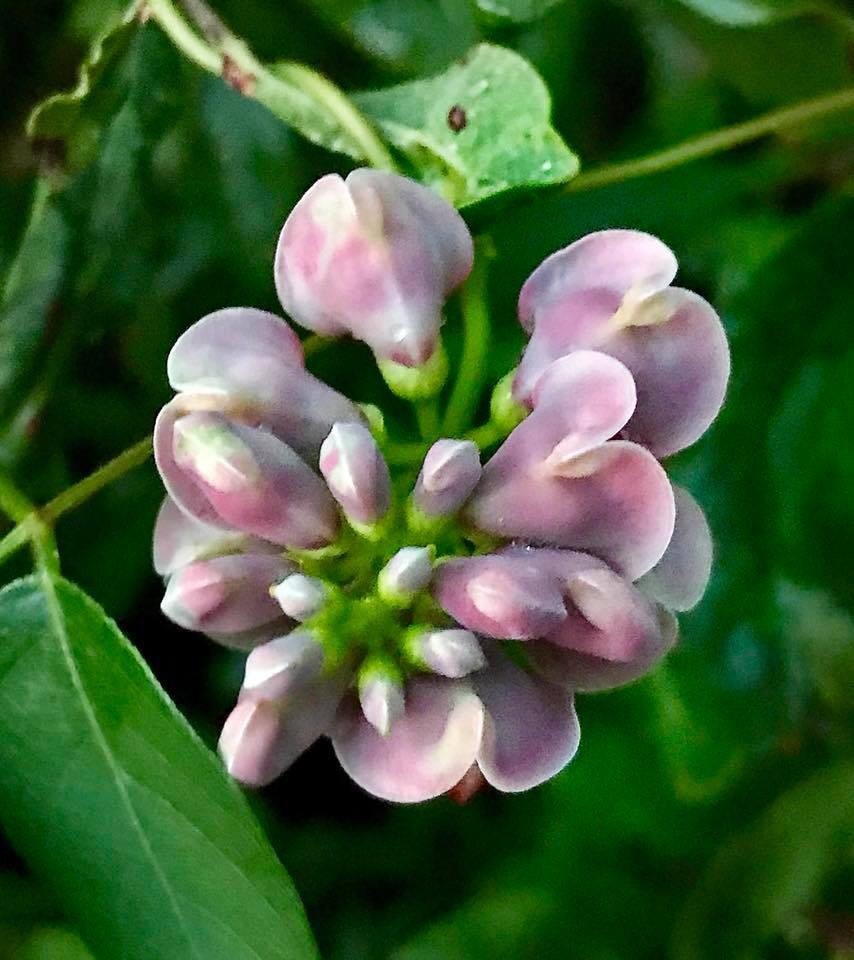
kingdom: Plantae
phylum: Tracheophyta
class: Magnoliopsida
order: Fabales
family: Fabaceae
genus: Apios
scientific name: Apios americana
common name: American potato-bean
